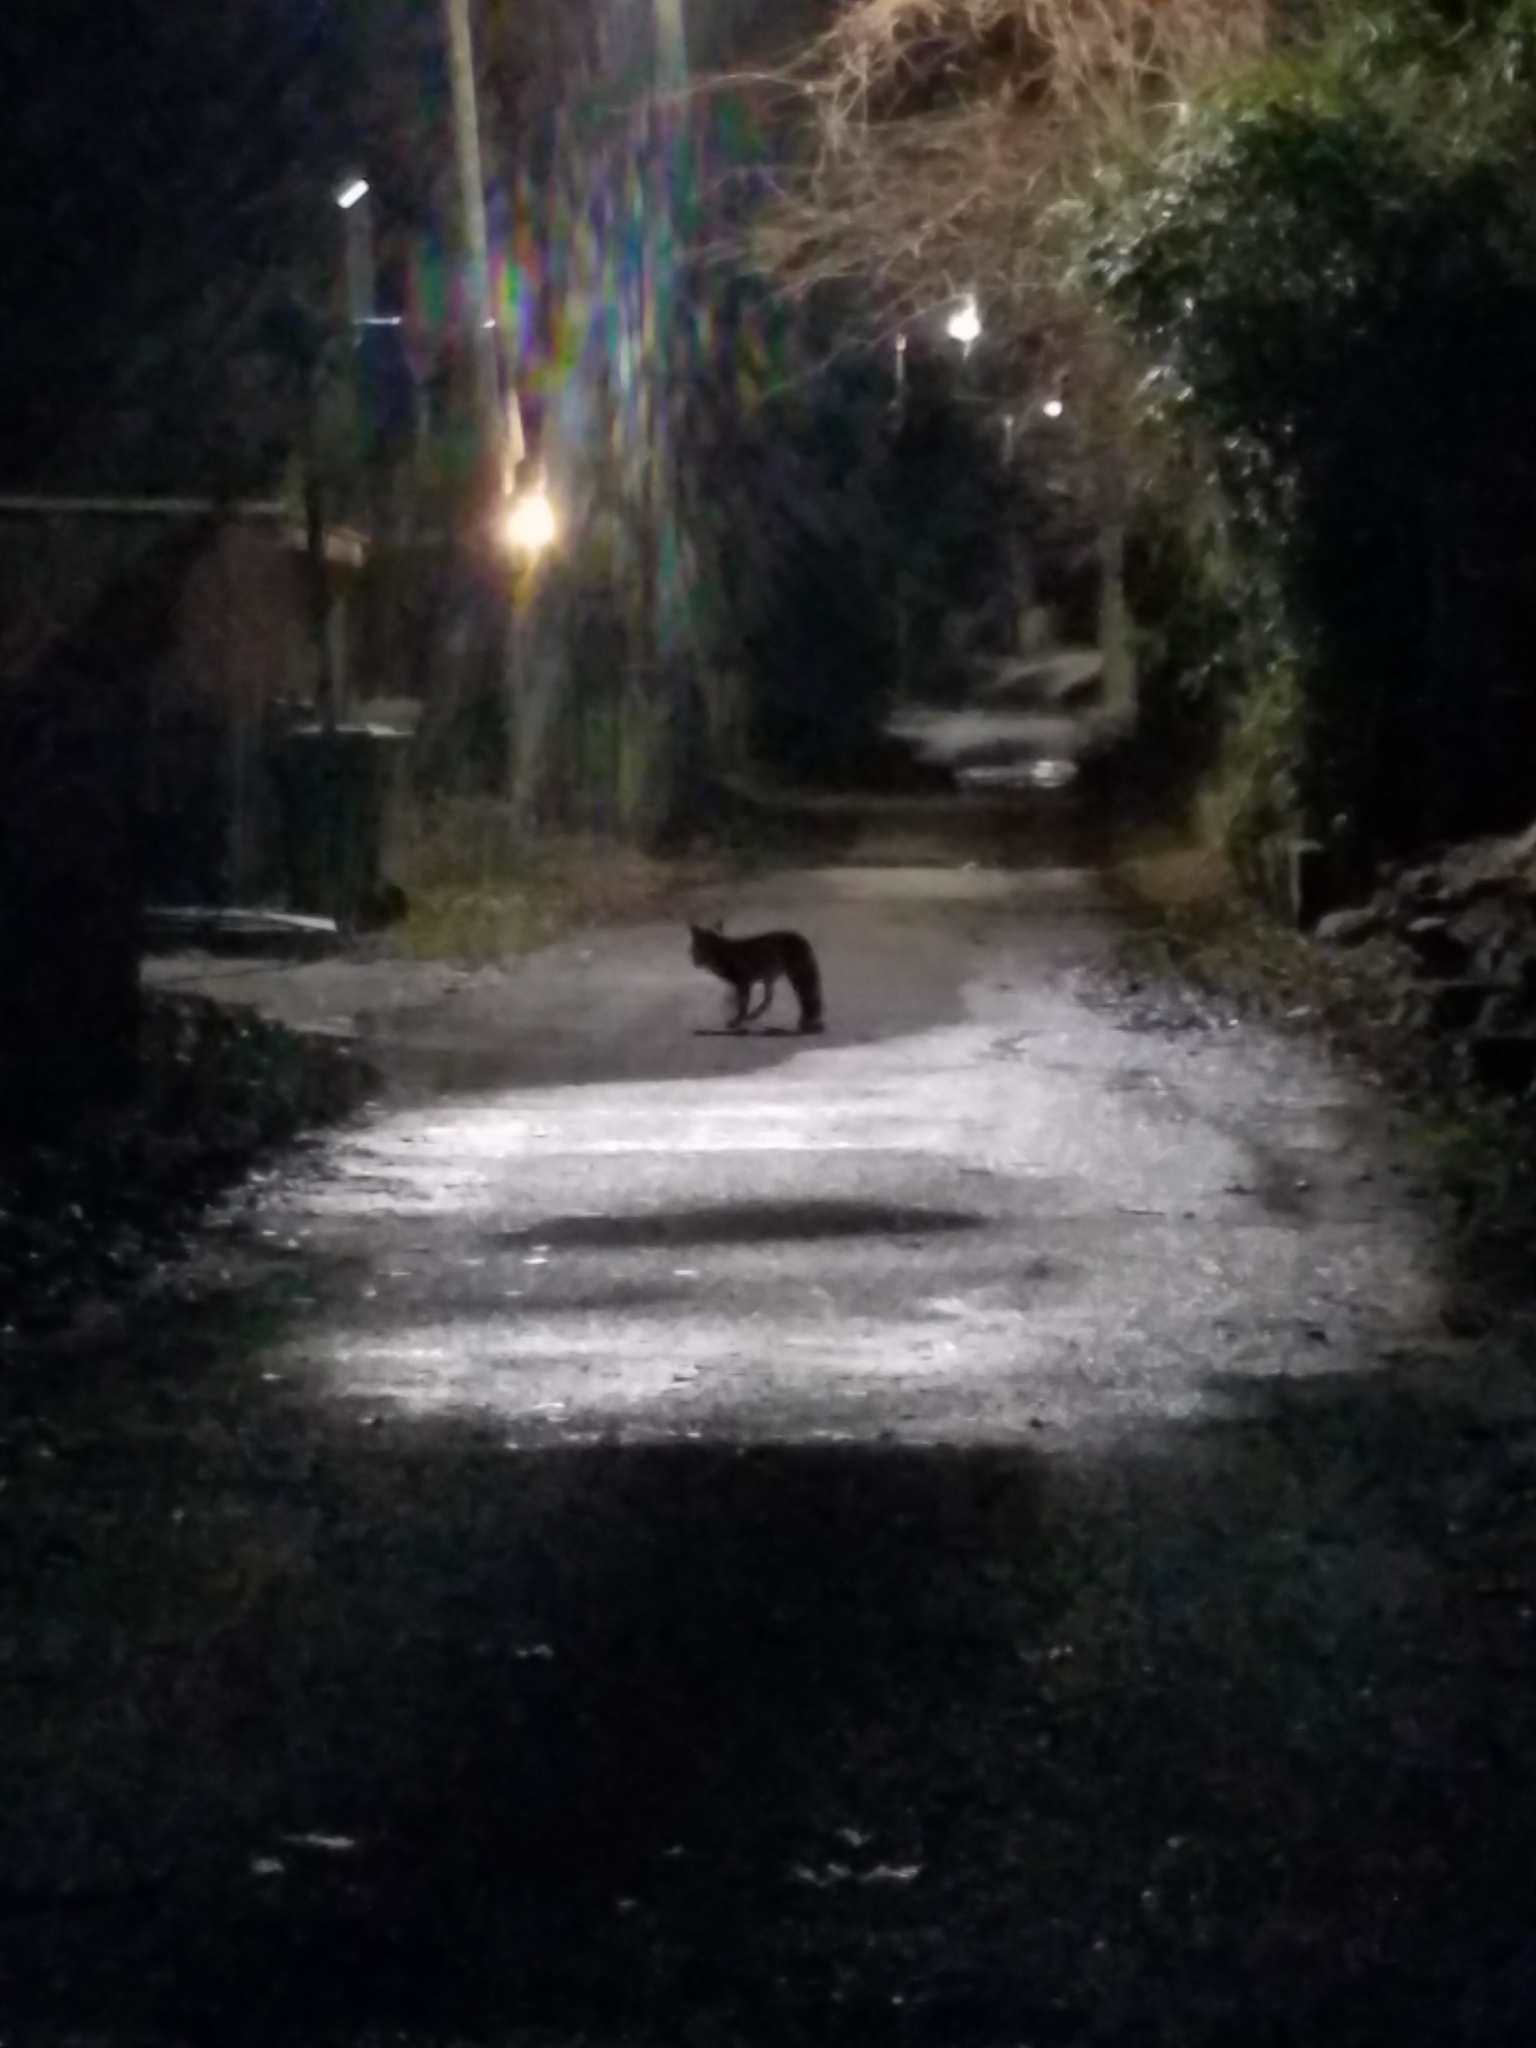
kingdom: Animalia
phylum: Chordata
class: Mammalia
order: Carnivora
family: Canidae
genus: Vulpes
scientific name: Vulpes vulpes
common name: Red fox
